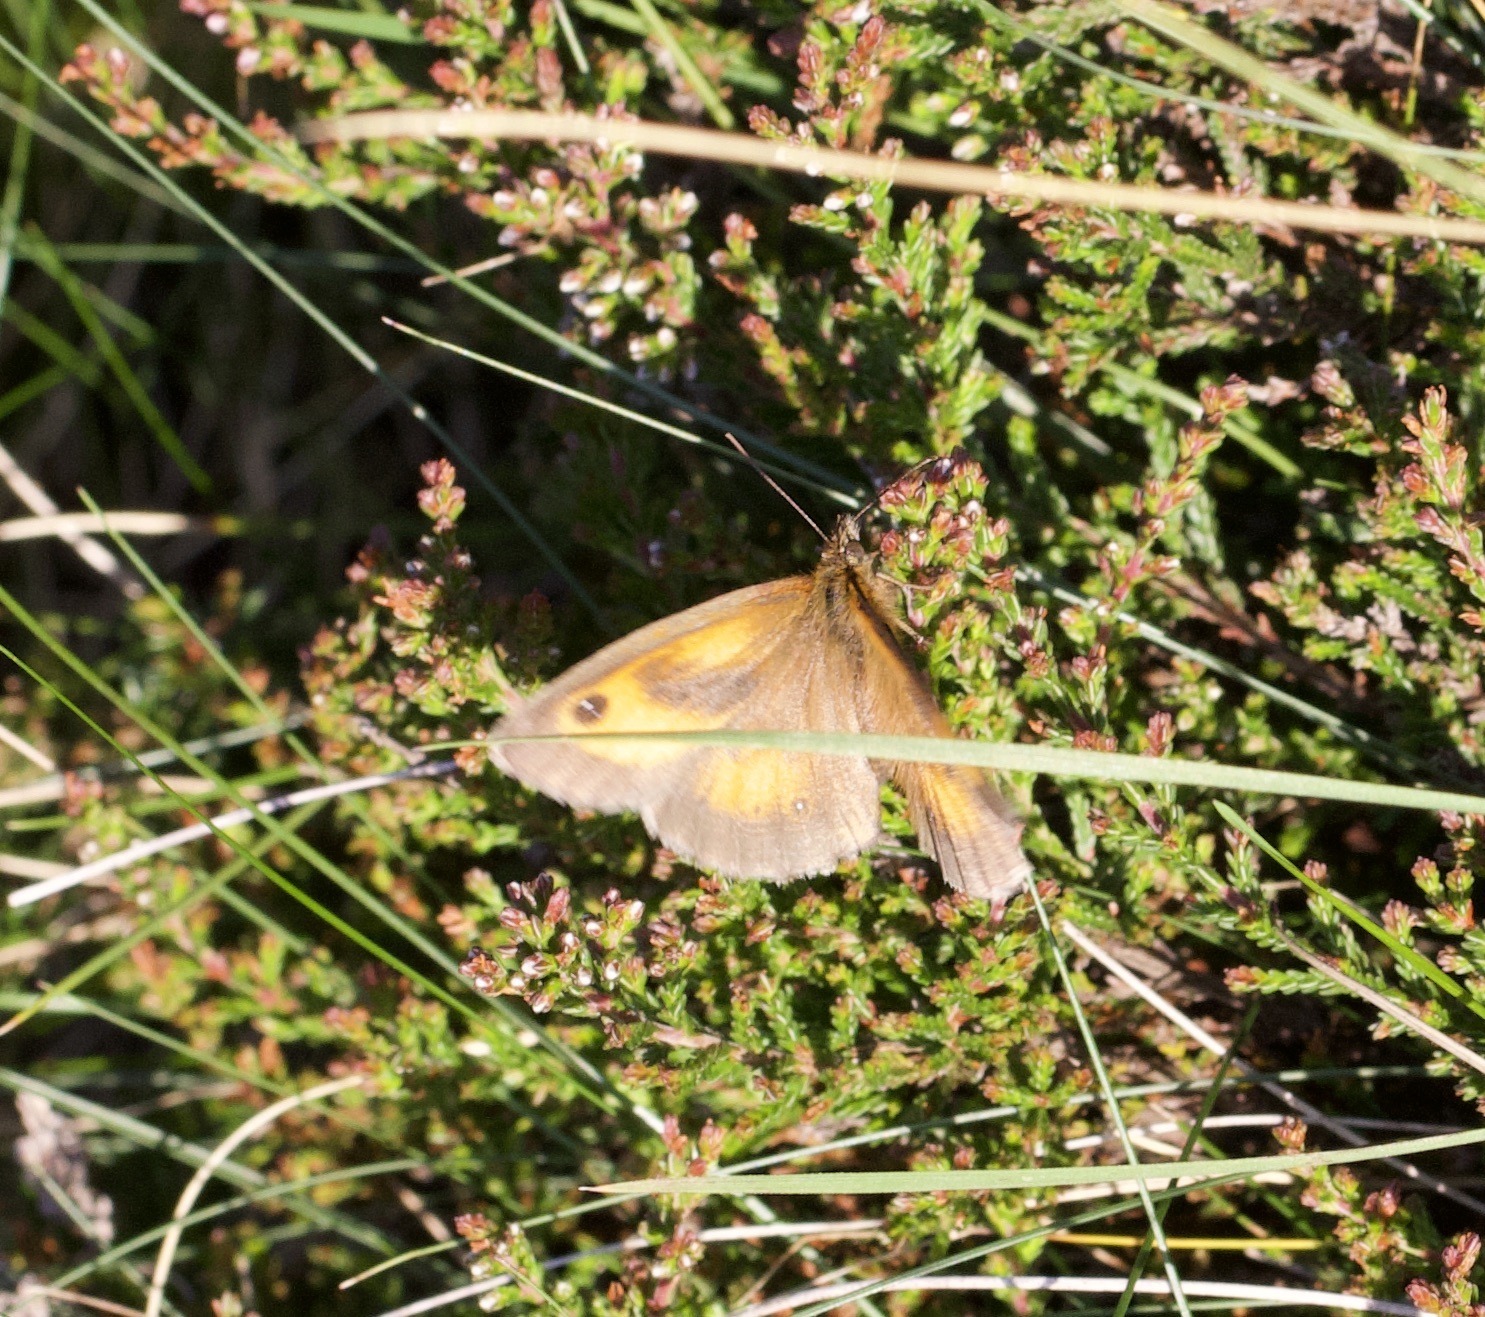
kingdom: Animalia
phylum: Arthropoda
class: Insecta
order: Lepidoptera
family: Nymphalidae
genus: Pyronia
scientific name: Pyronia tithonus
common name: Gatekeeper
